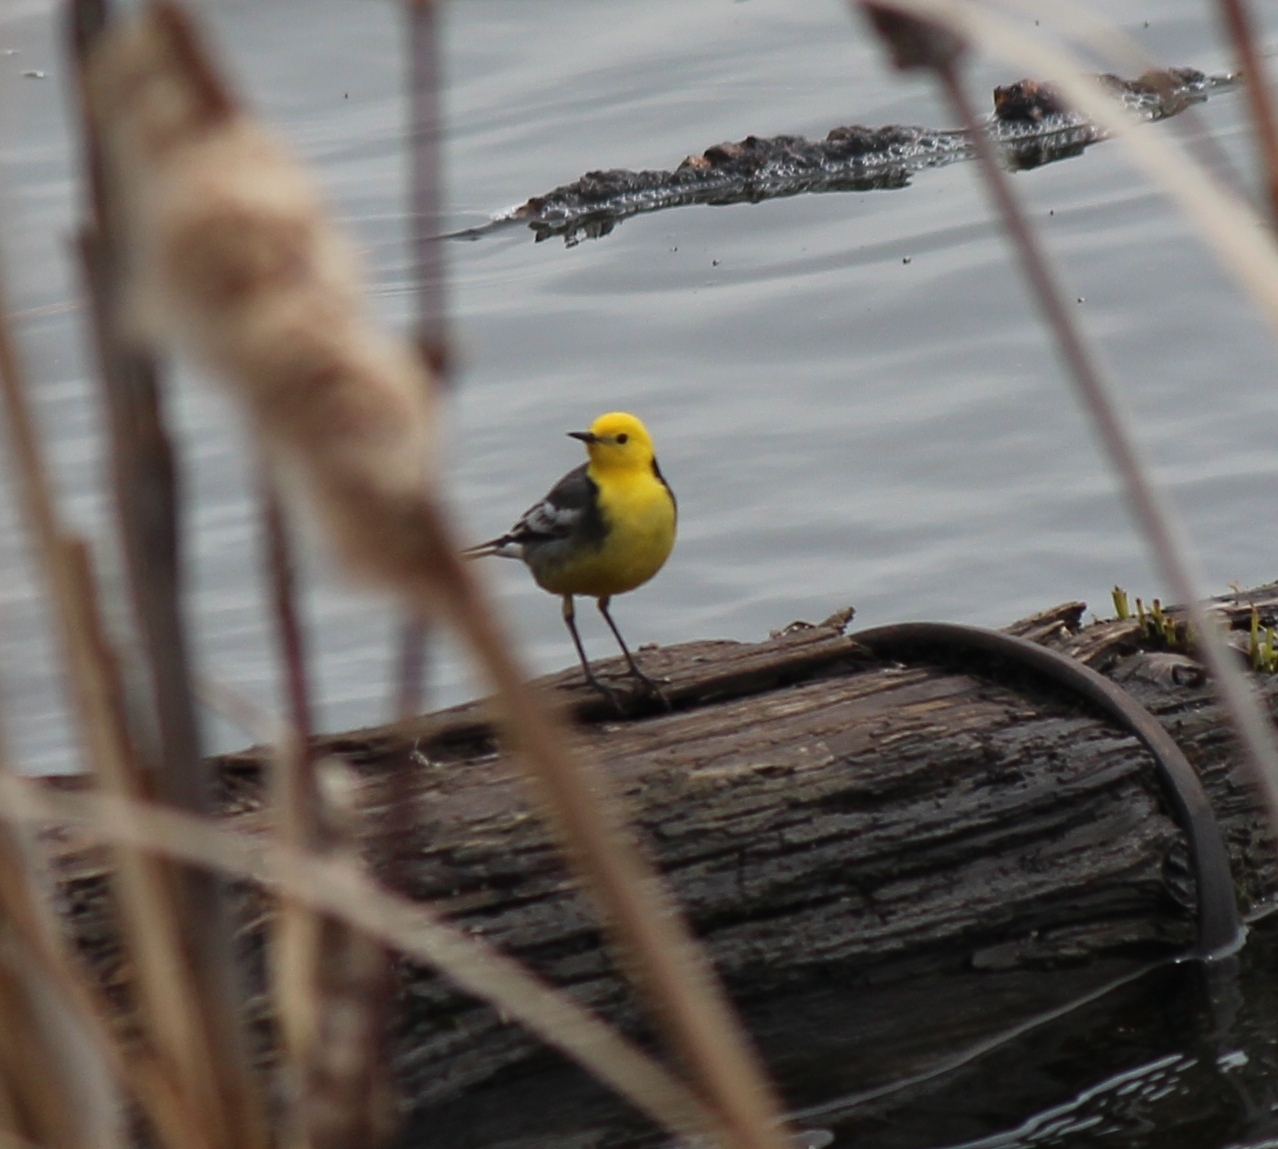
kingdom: Animalia
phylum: Chordata
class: Aves
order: Passeriformes
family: Motacillidae
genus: Motacilla
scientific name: Motacilla citreola
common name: Citrine wagtail
